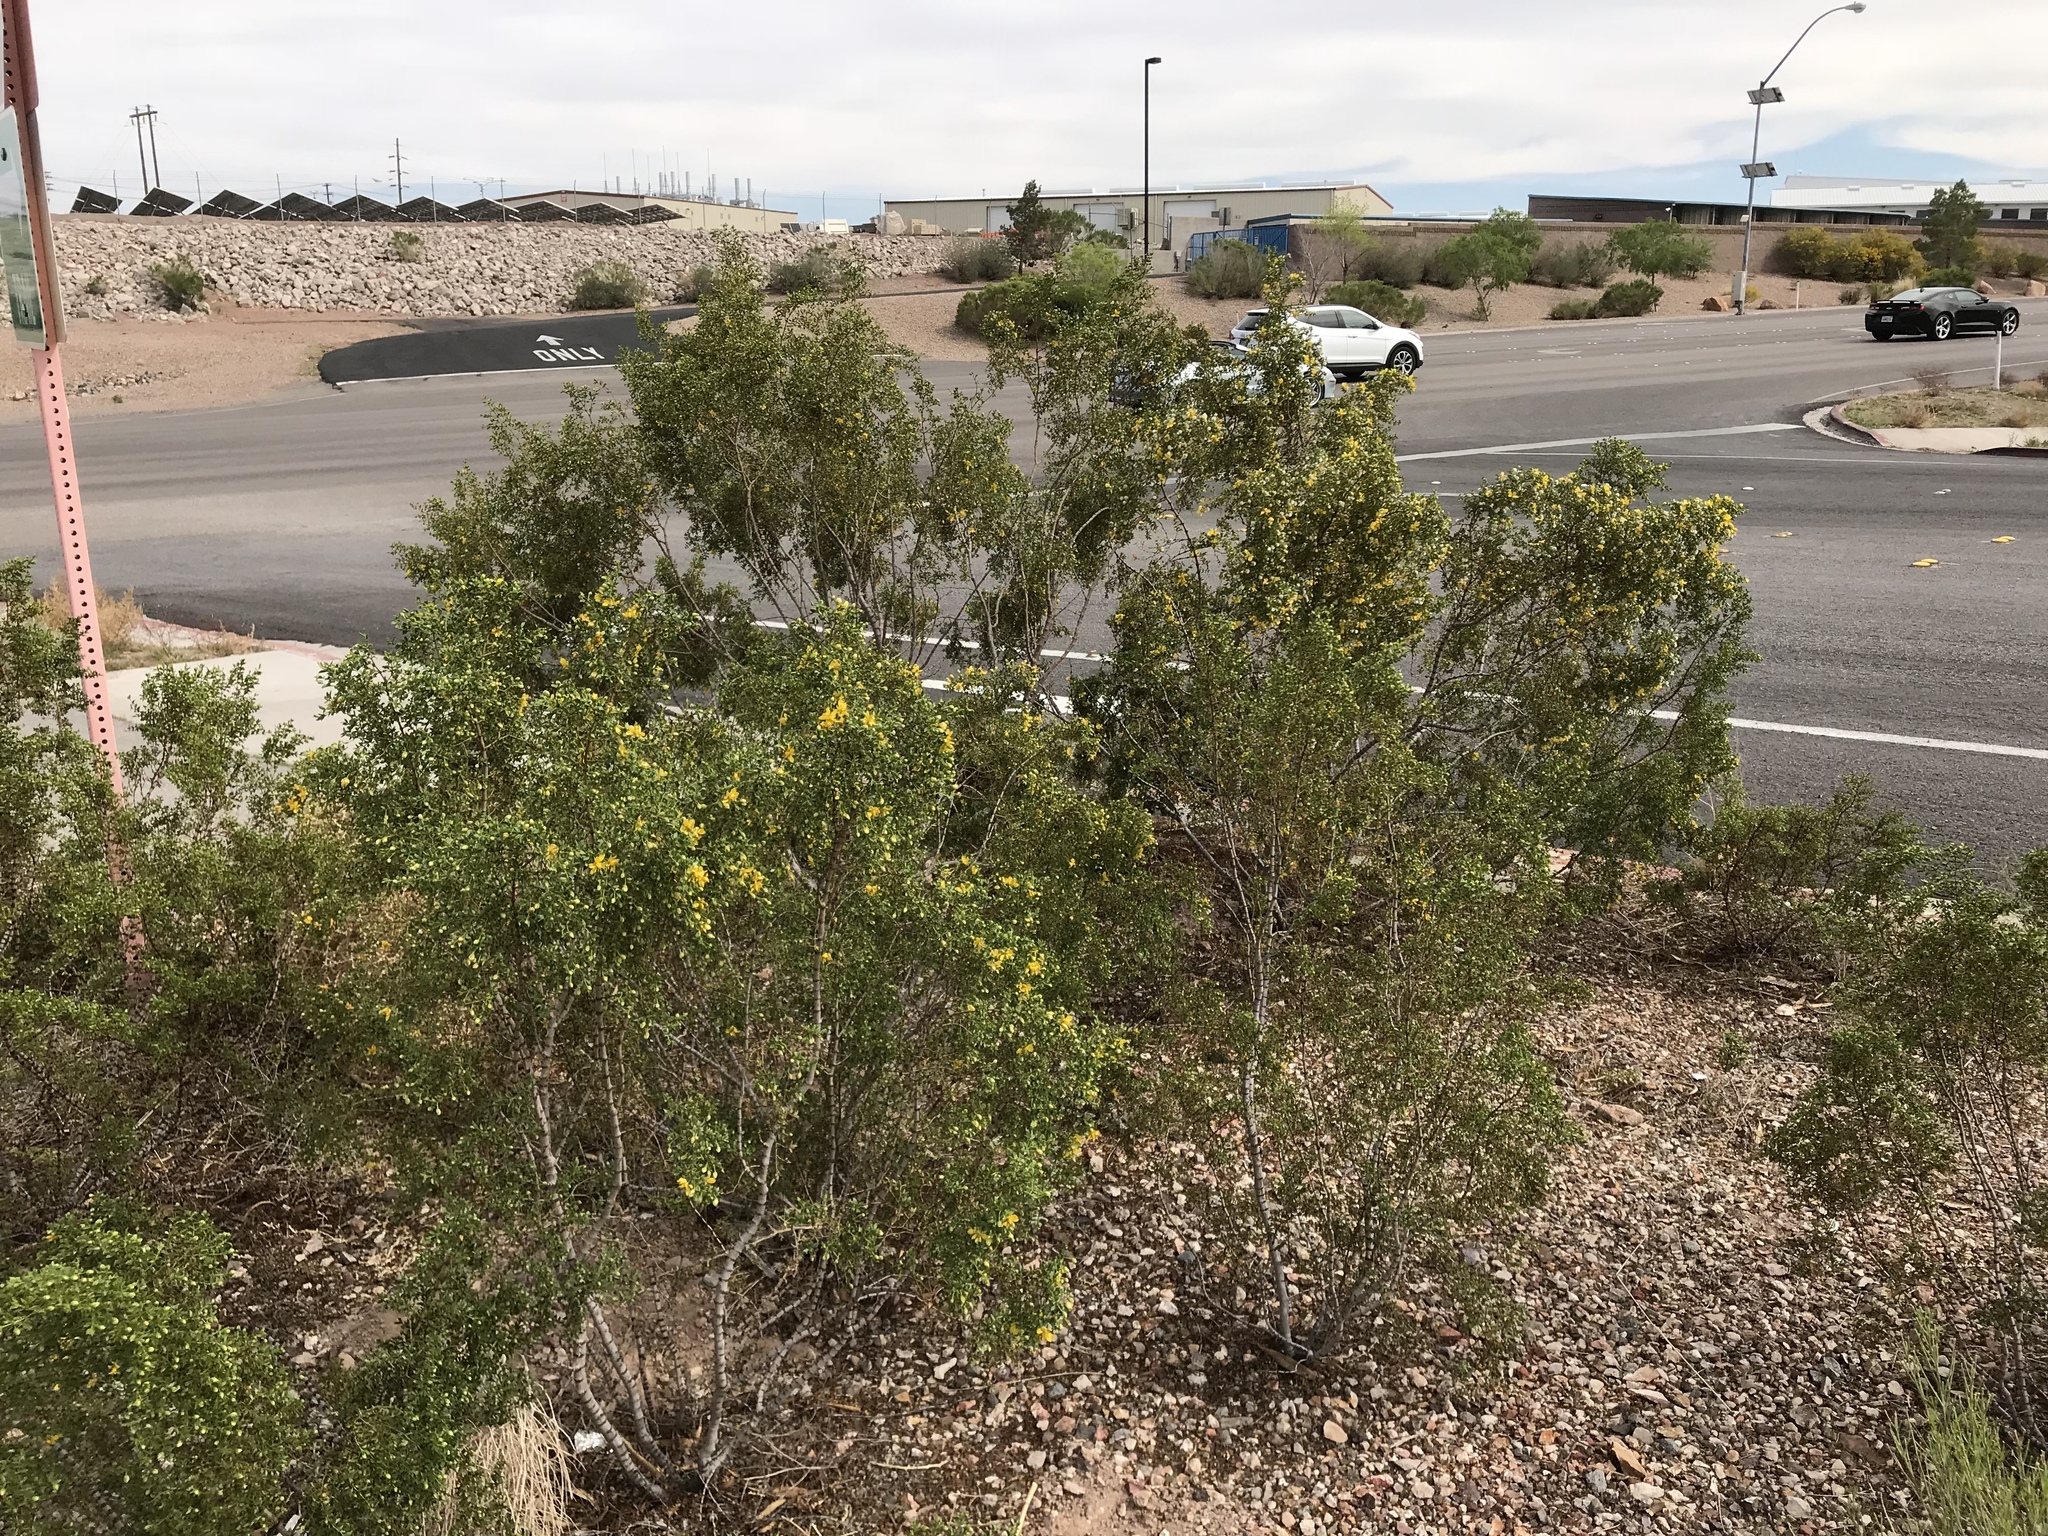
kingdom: Plantae
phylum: Tracheophyta
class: Magnoliopsida
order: Zygophyllales
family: Zygophyllaceae
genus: Larrea
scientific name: Larrea tridentata
